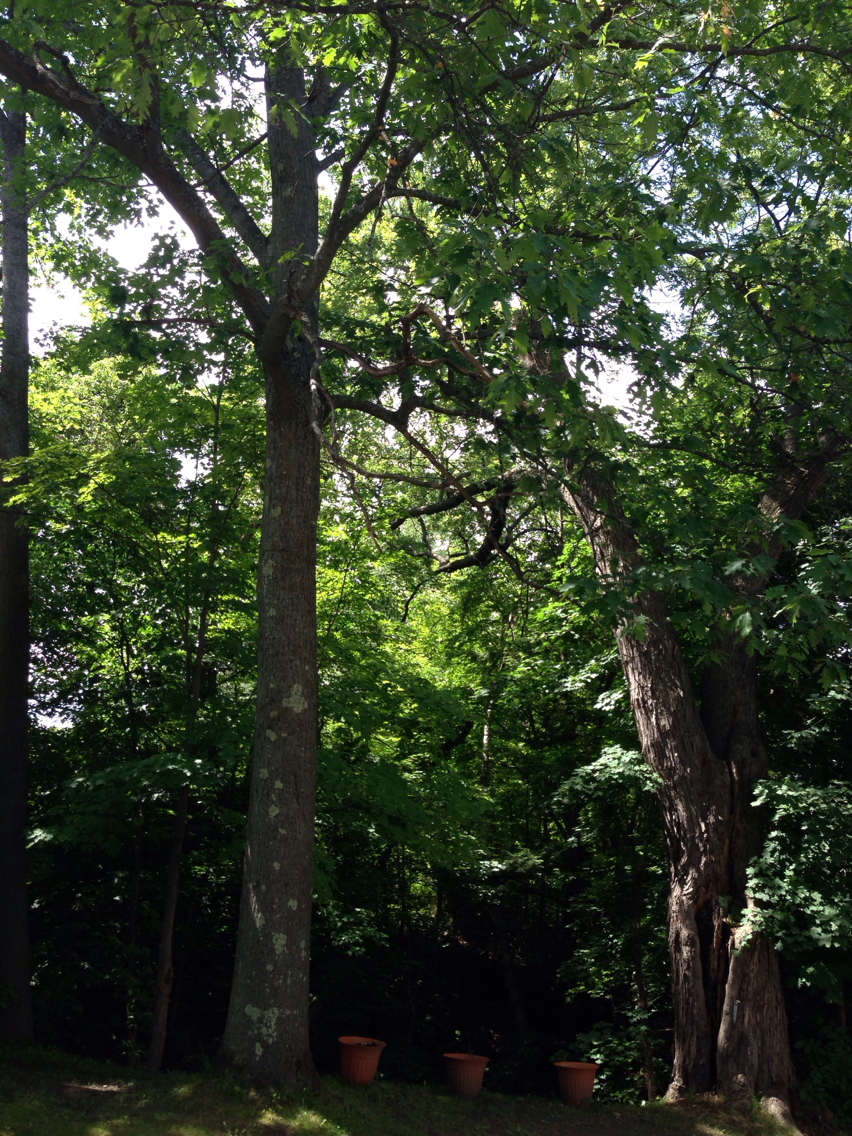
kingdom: Plantae
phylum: Tracheophyta
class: Magnoliopsida
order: Fagales
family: Fagaceae
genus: Quercus
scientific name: Quercus rubra
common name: Red oak
